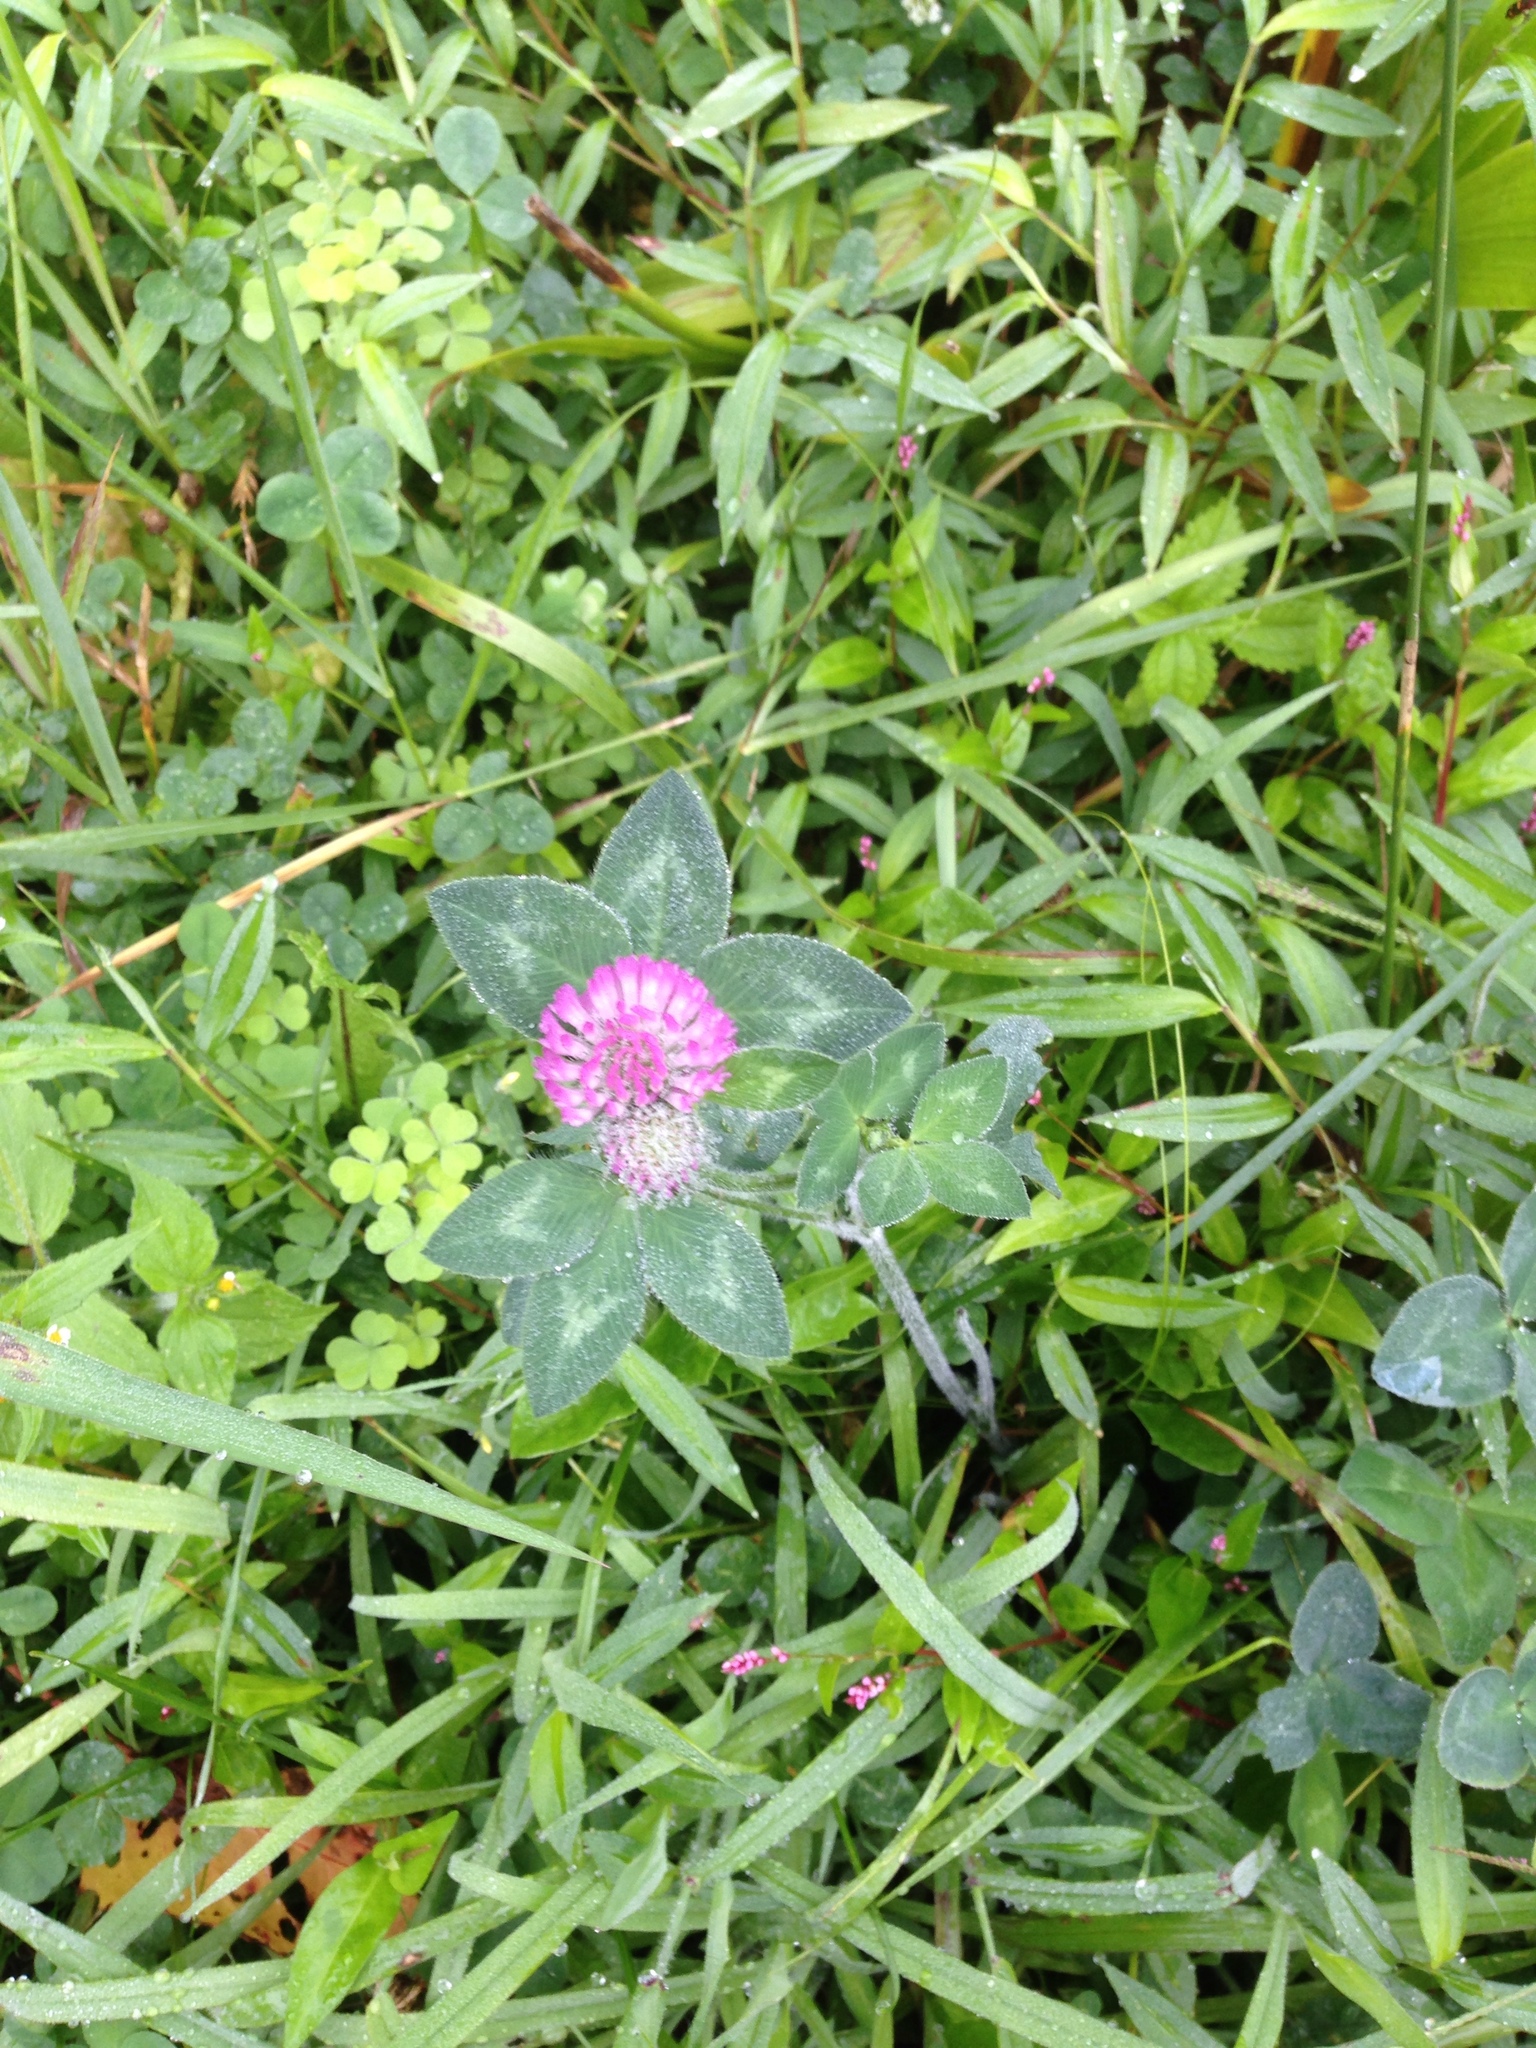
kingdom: Plantae
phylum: Tracheophyta
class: Magnoliopsida
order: Fabales
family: Fabaceae
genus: Trifolium
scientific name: Trifolium pratense
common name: Red clover
